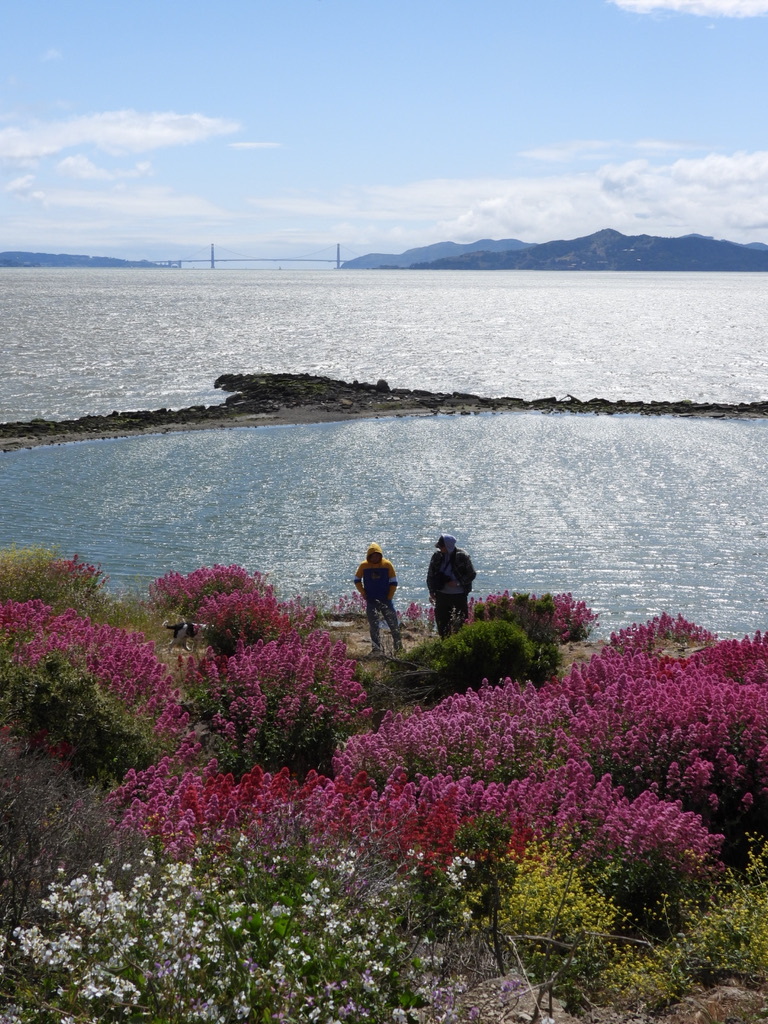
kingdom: Plantae
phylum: Tracheophyta
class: Magnoliopsida
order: Dipsacales
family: Caprifoliaceae
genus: Centranthus
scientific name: Centranthus ruber
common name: Red valerian
